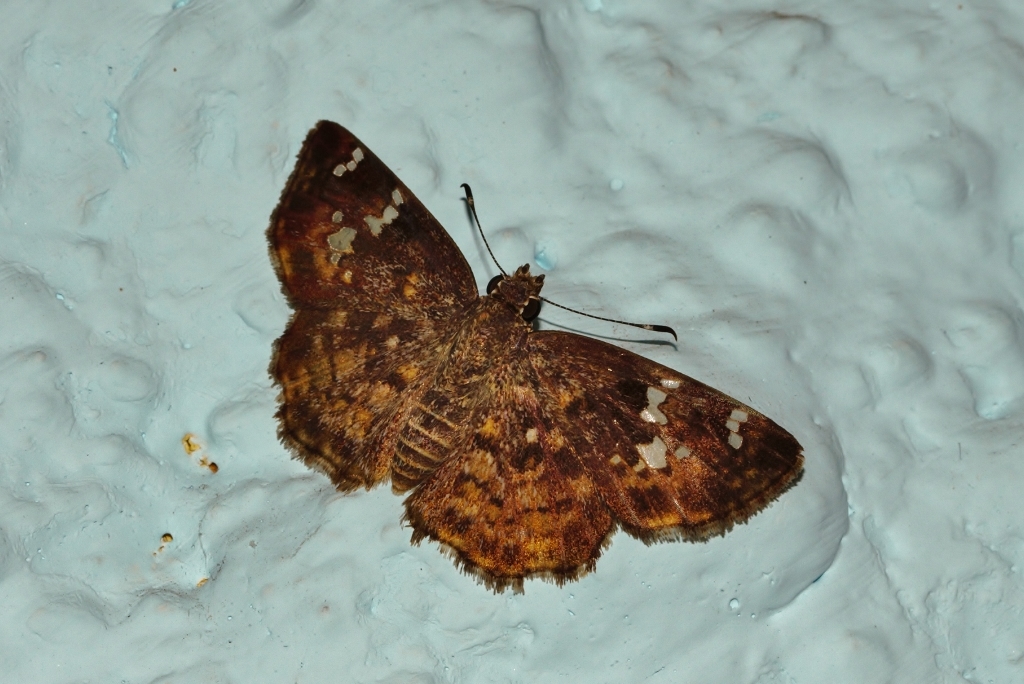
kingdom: Animalia
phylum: Arthropoda
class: Insecta
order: Lepidoptera
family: Hesperiidae
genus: Sarangesa
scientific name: Sarangesa seineri
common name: Dark elfin
